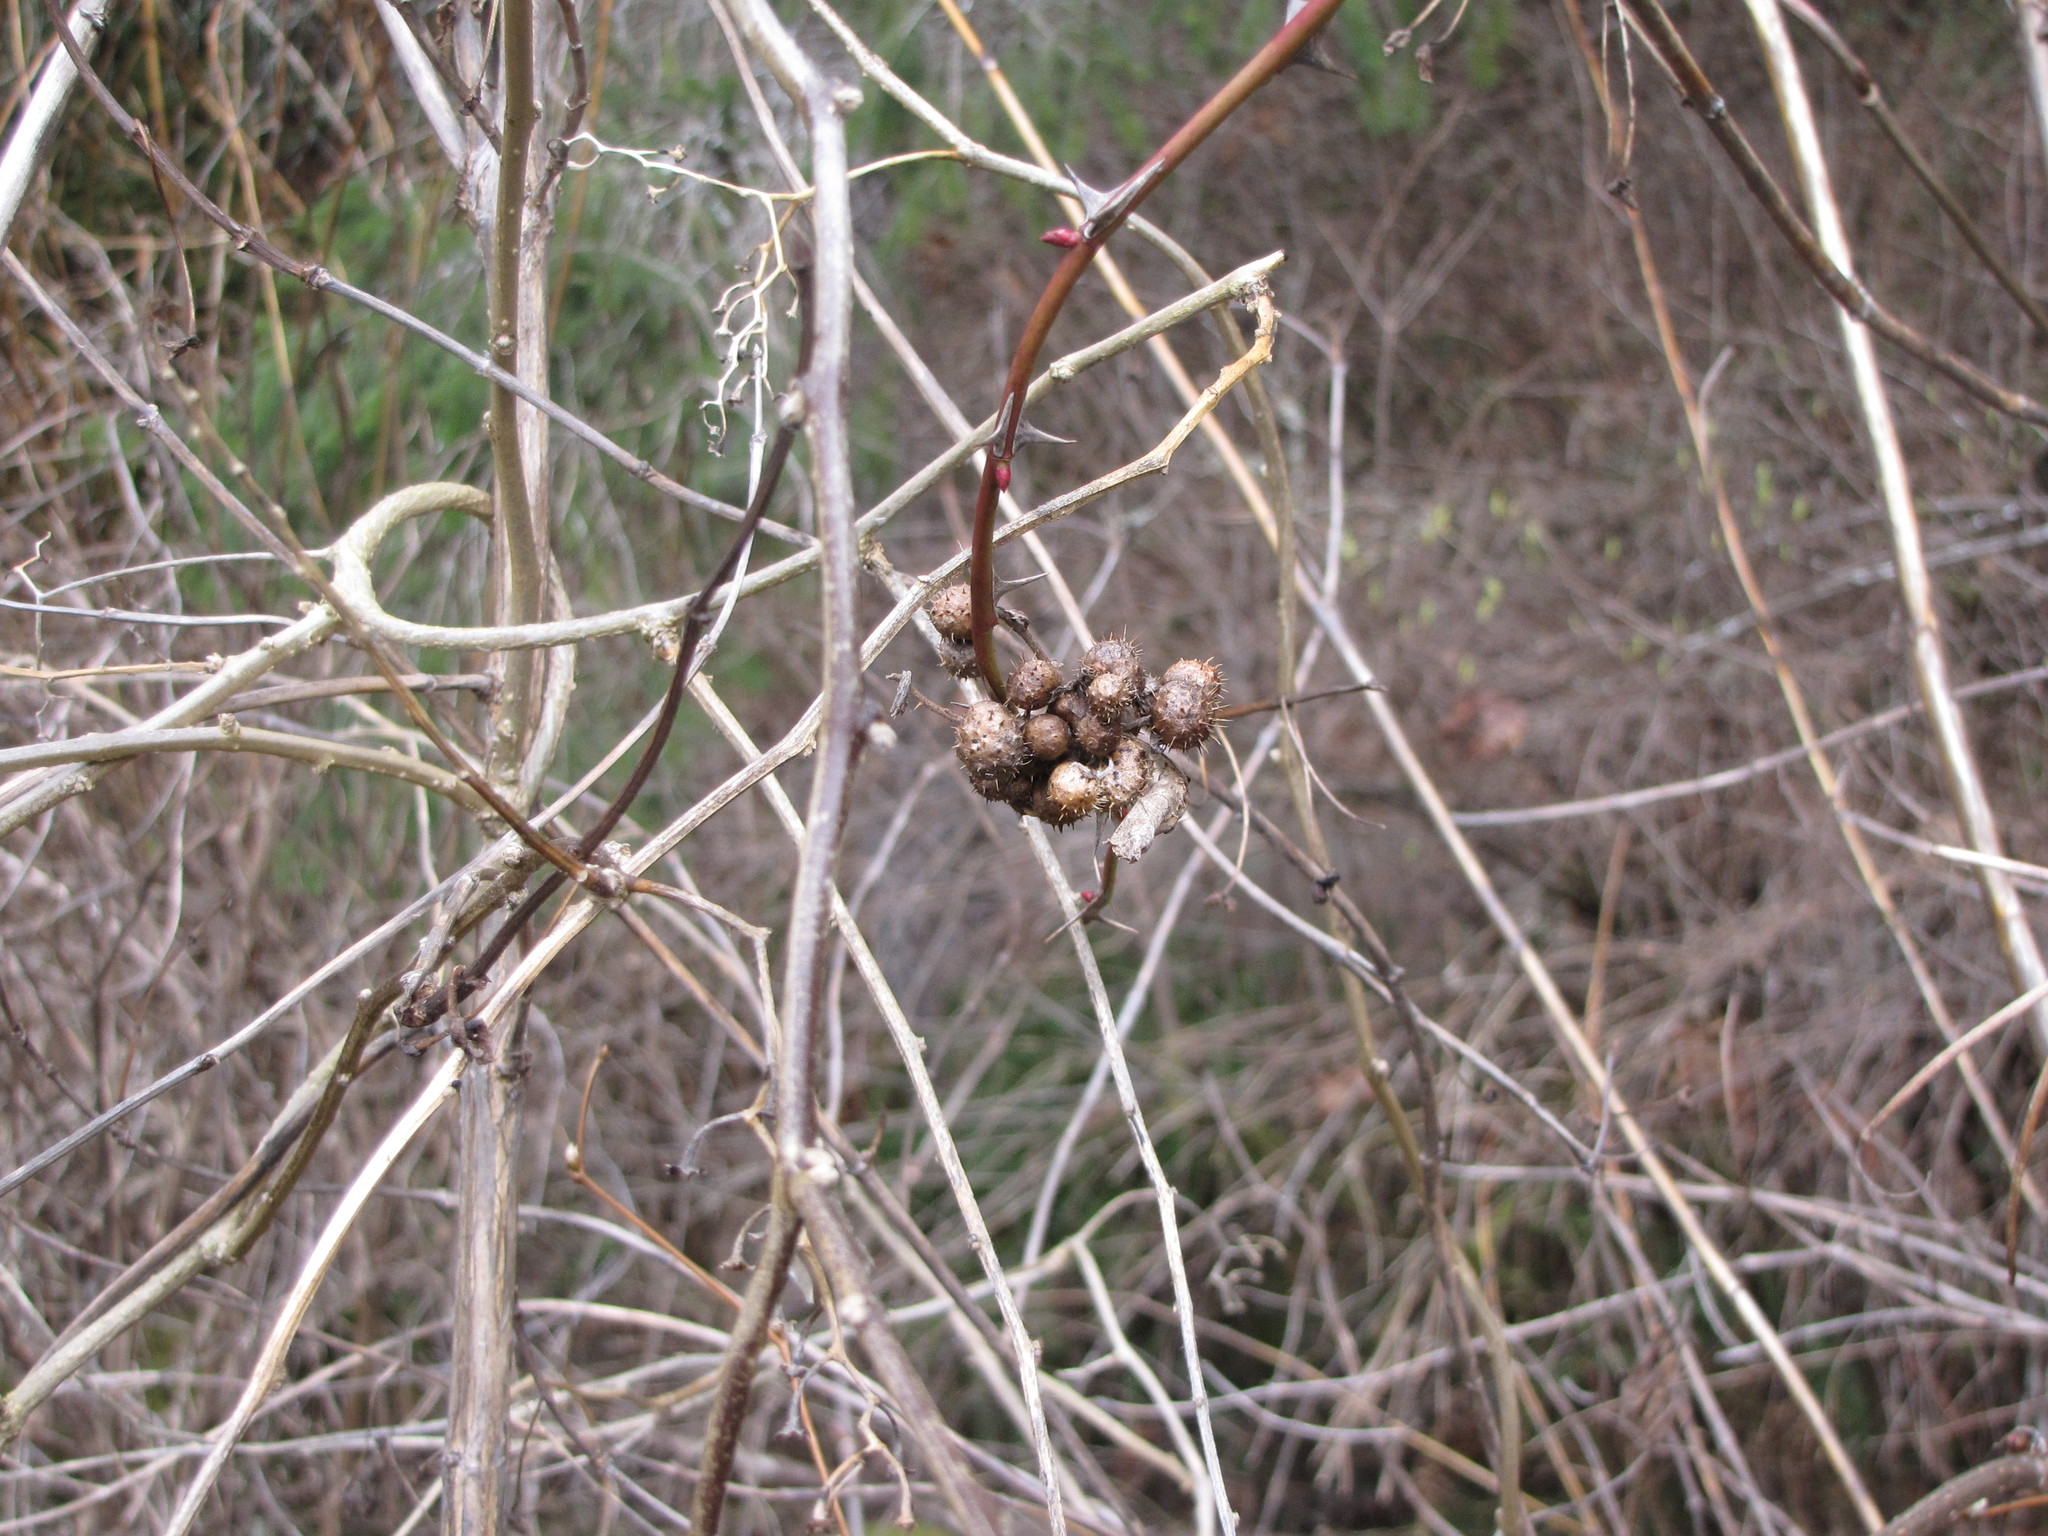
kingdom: Animalia
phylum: Arthropoda
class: Insecta
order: Hymenoptera
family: Cynipidae
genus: Diplolepis
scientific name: Diplolepis polita
